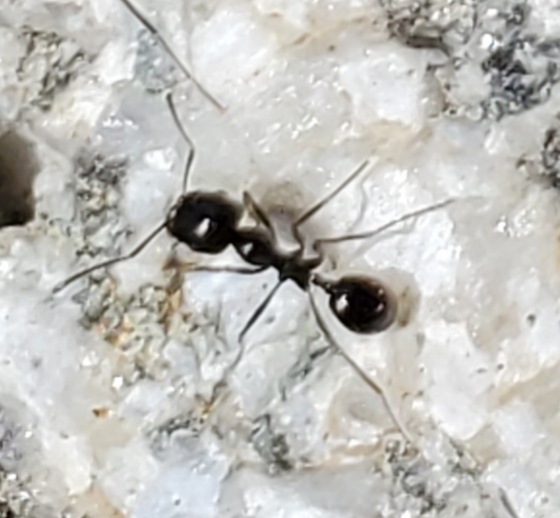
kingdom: Animalia
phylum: Arthropoda
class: Insecta
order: Hymenoptera
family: Formicidae
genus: Messor
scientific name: Messor pergandei
